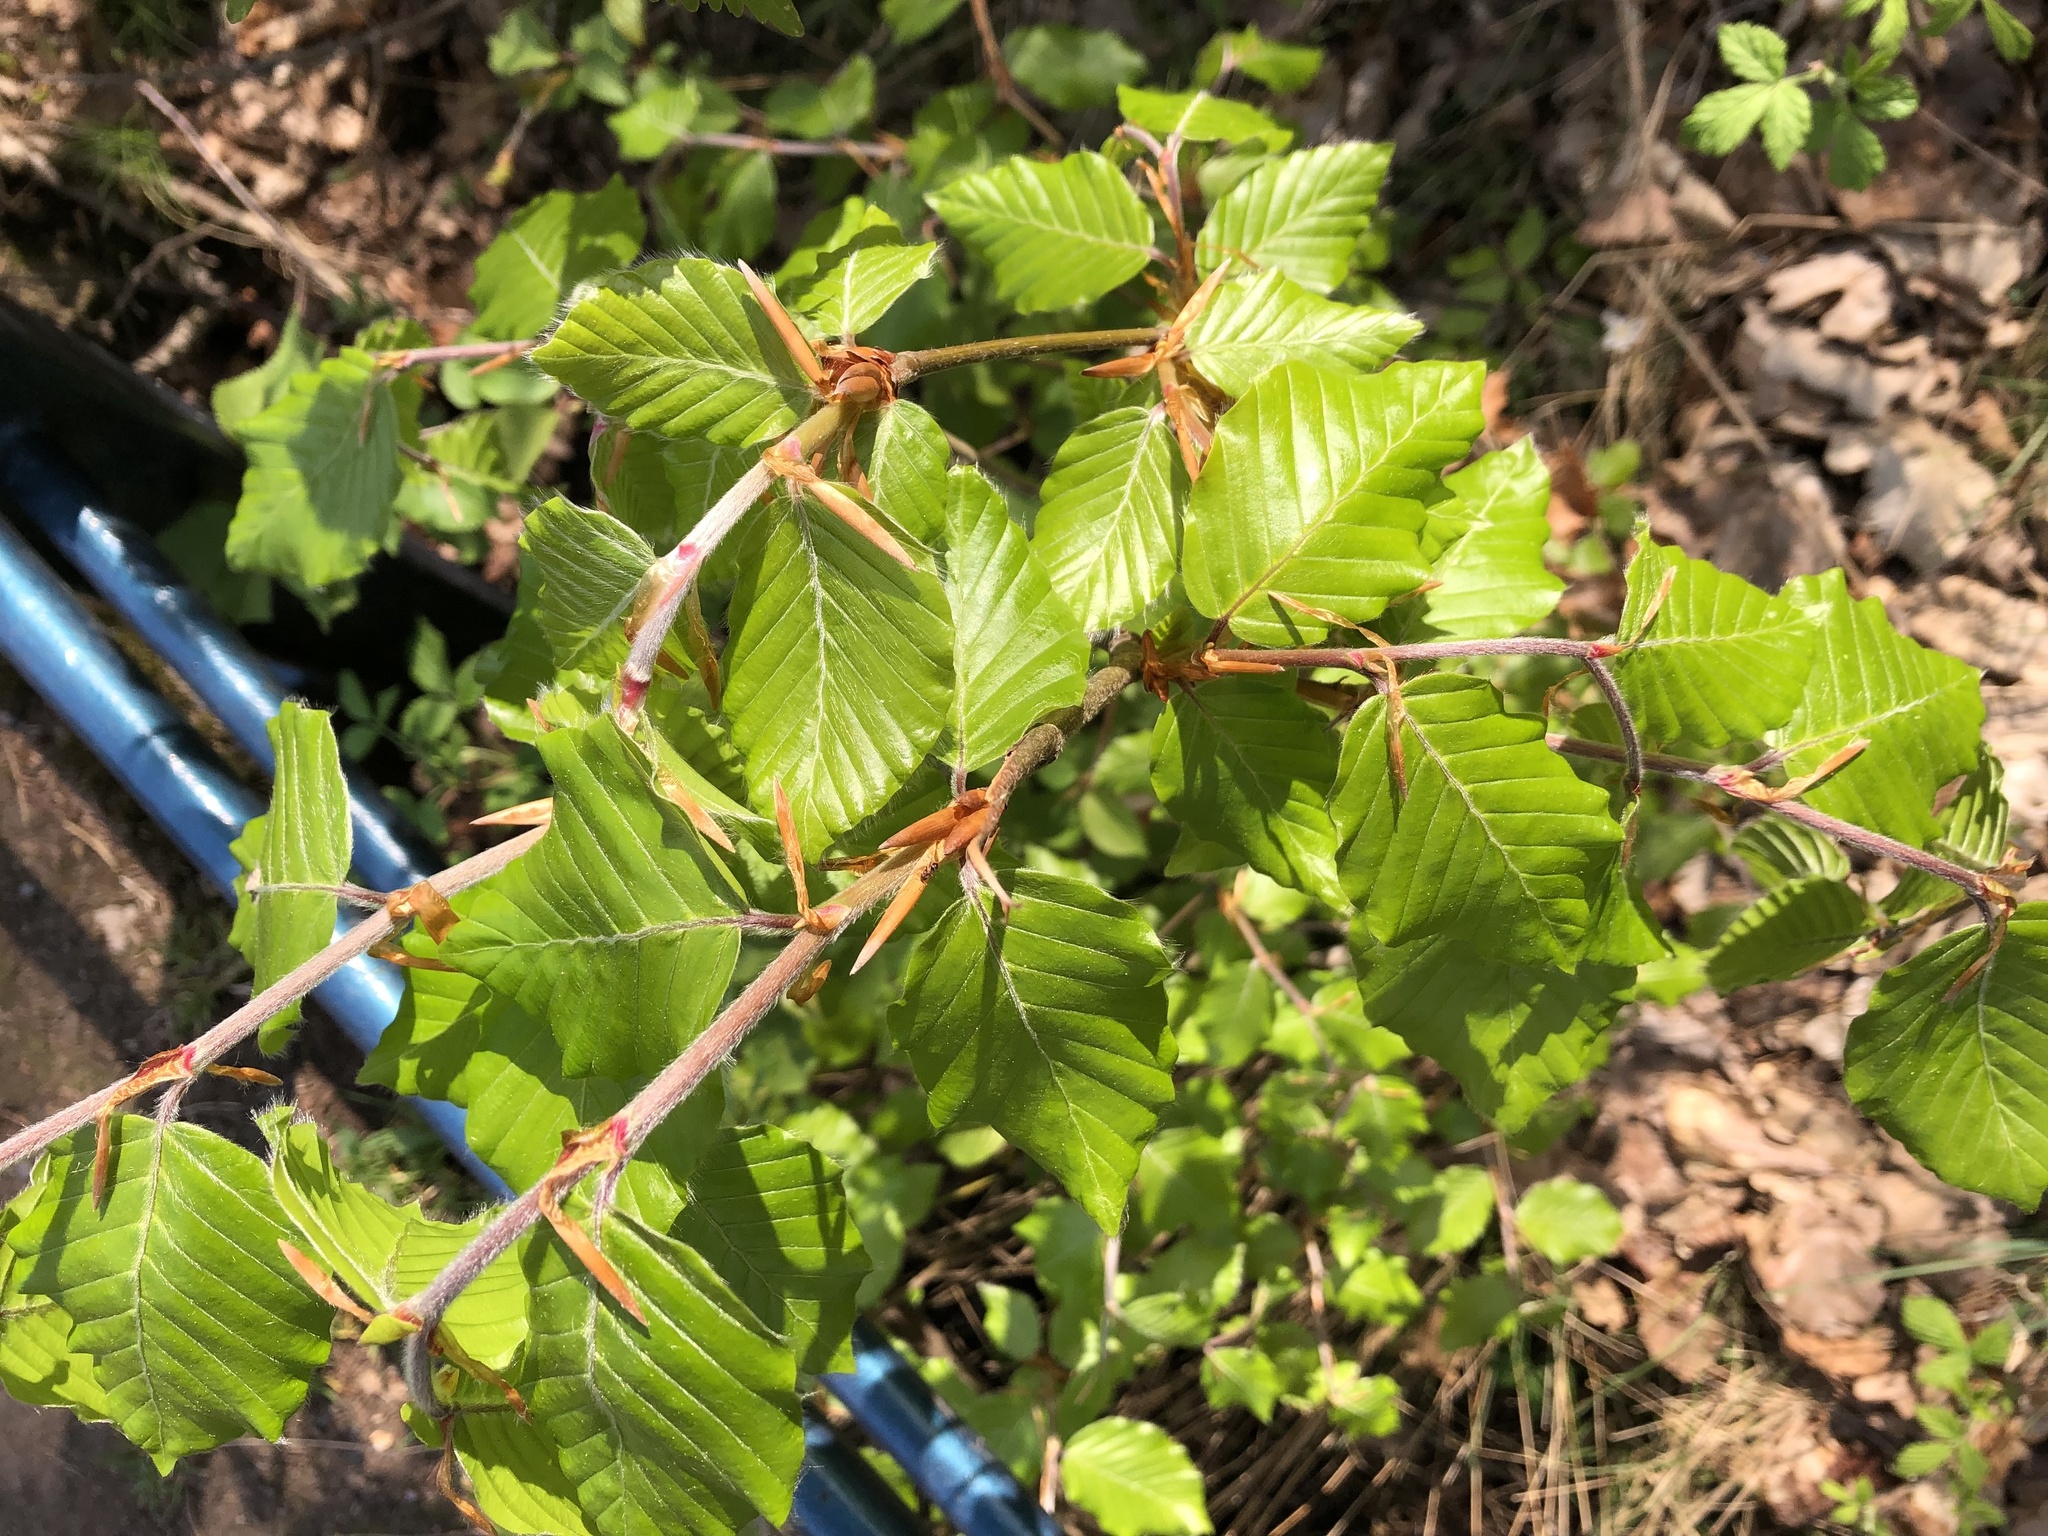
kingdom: Plantae
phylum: Tracheophyta
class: Magnoliopsida
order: Fagales
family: Fagaceae
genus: Fagus
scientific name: Fagus sylvatica
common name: Beech
